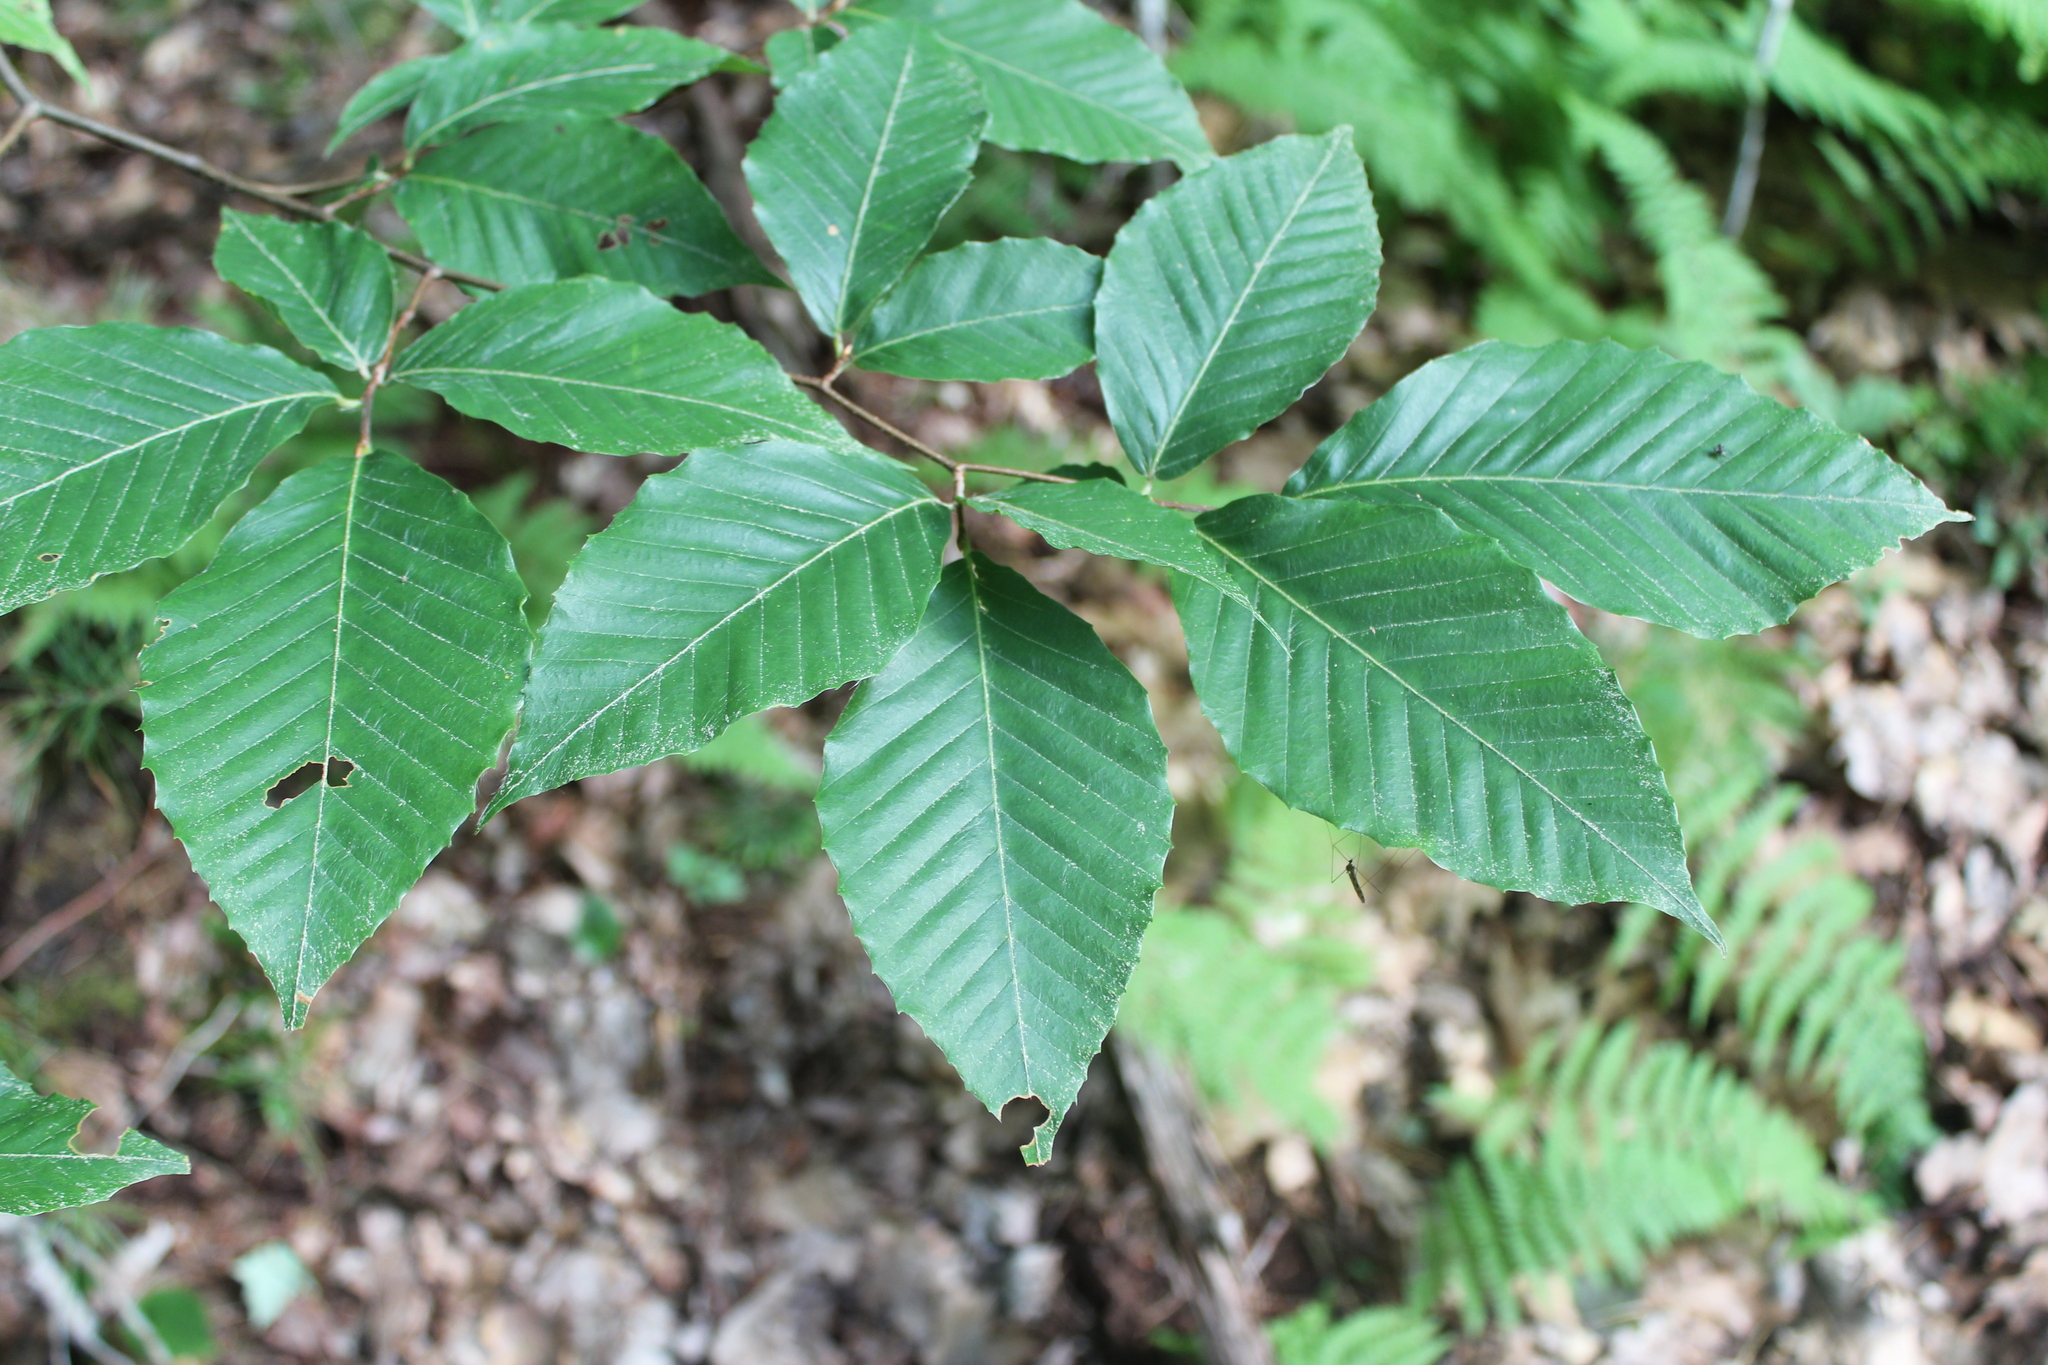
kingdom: Plantae
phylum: Tracheophyta
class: Magnoliopsida
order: Fagales
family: Fagaceae
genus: Fagus
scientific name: Fagus grandifolia
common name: American beech
